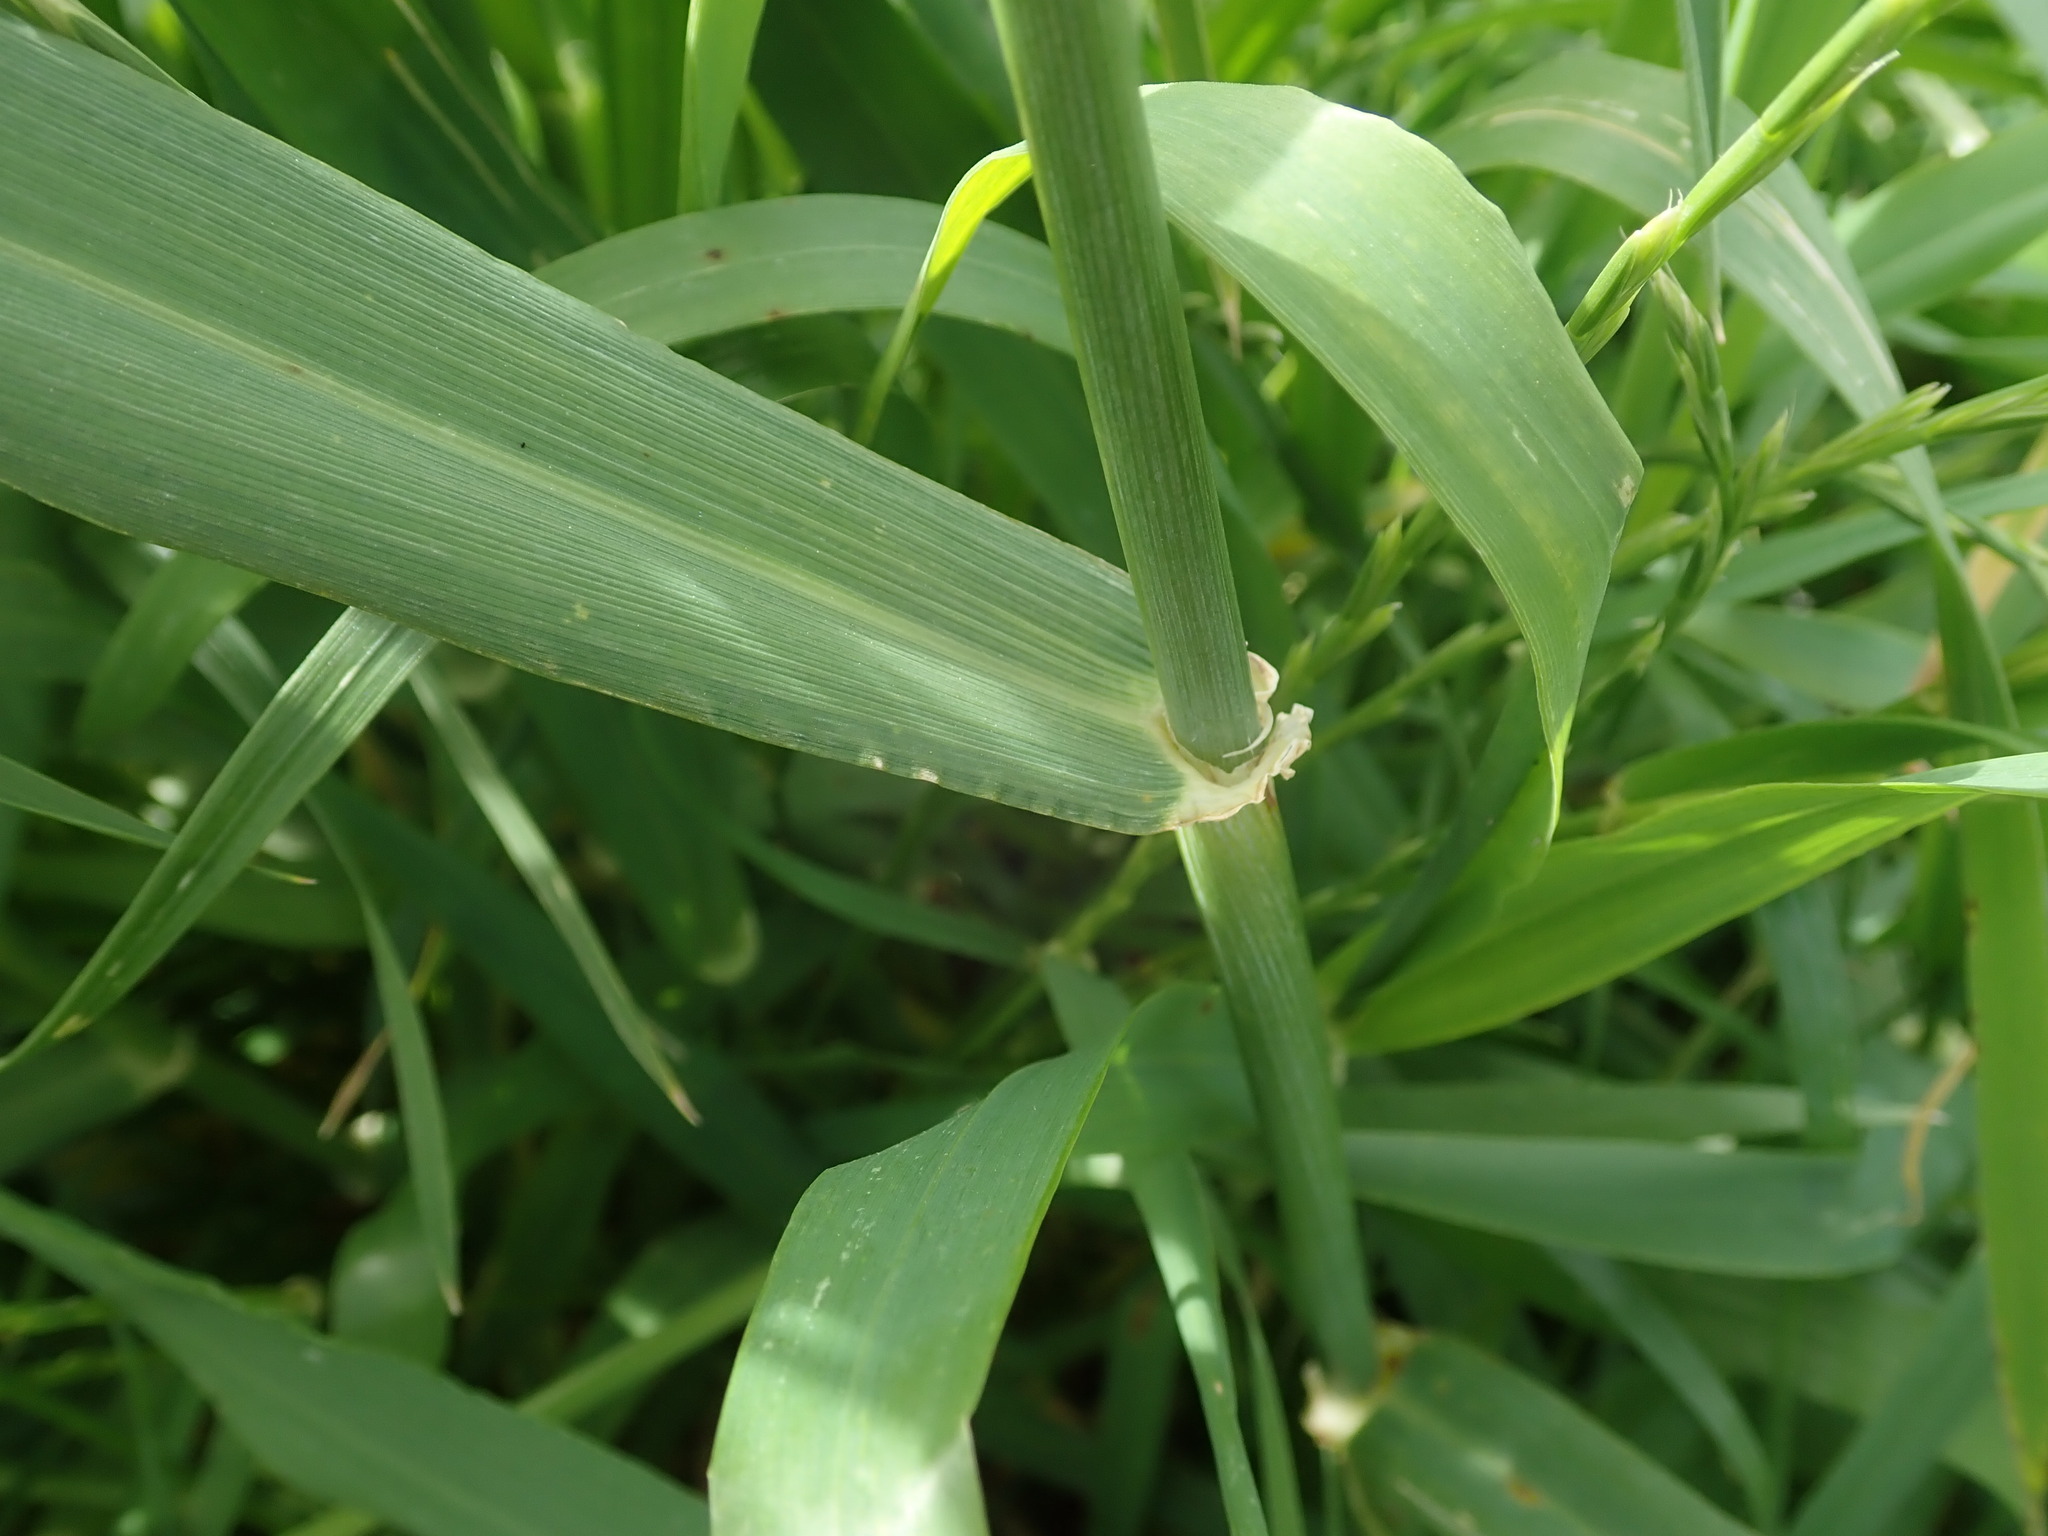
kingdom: Plantae
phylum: Tracheophyta
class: Liliopsida
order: Poales
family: Poaceae
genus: Hordeum
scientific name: Hordeum vulgare
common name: Common barley
